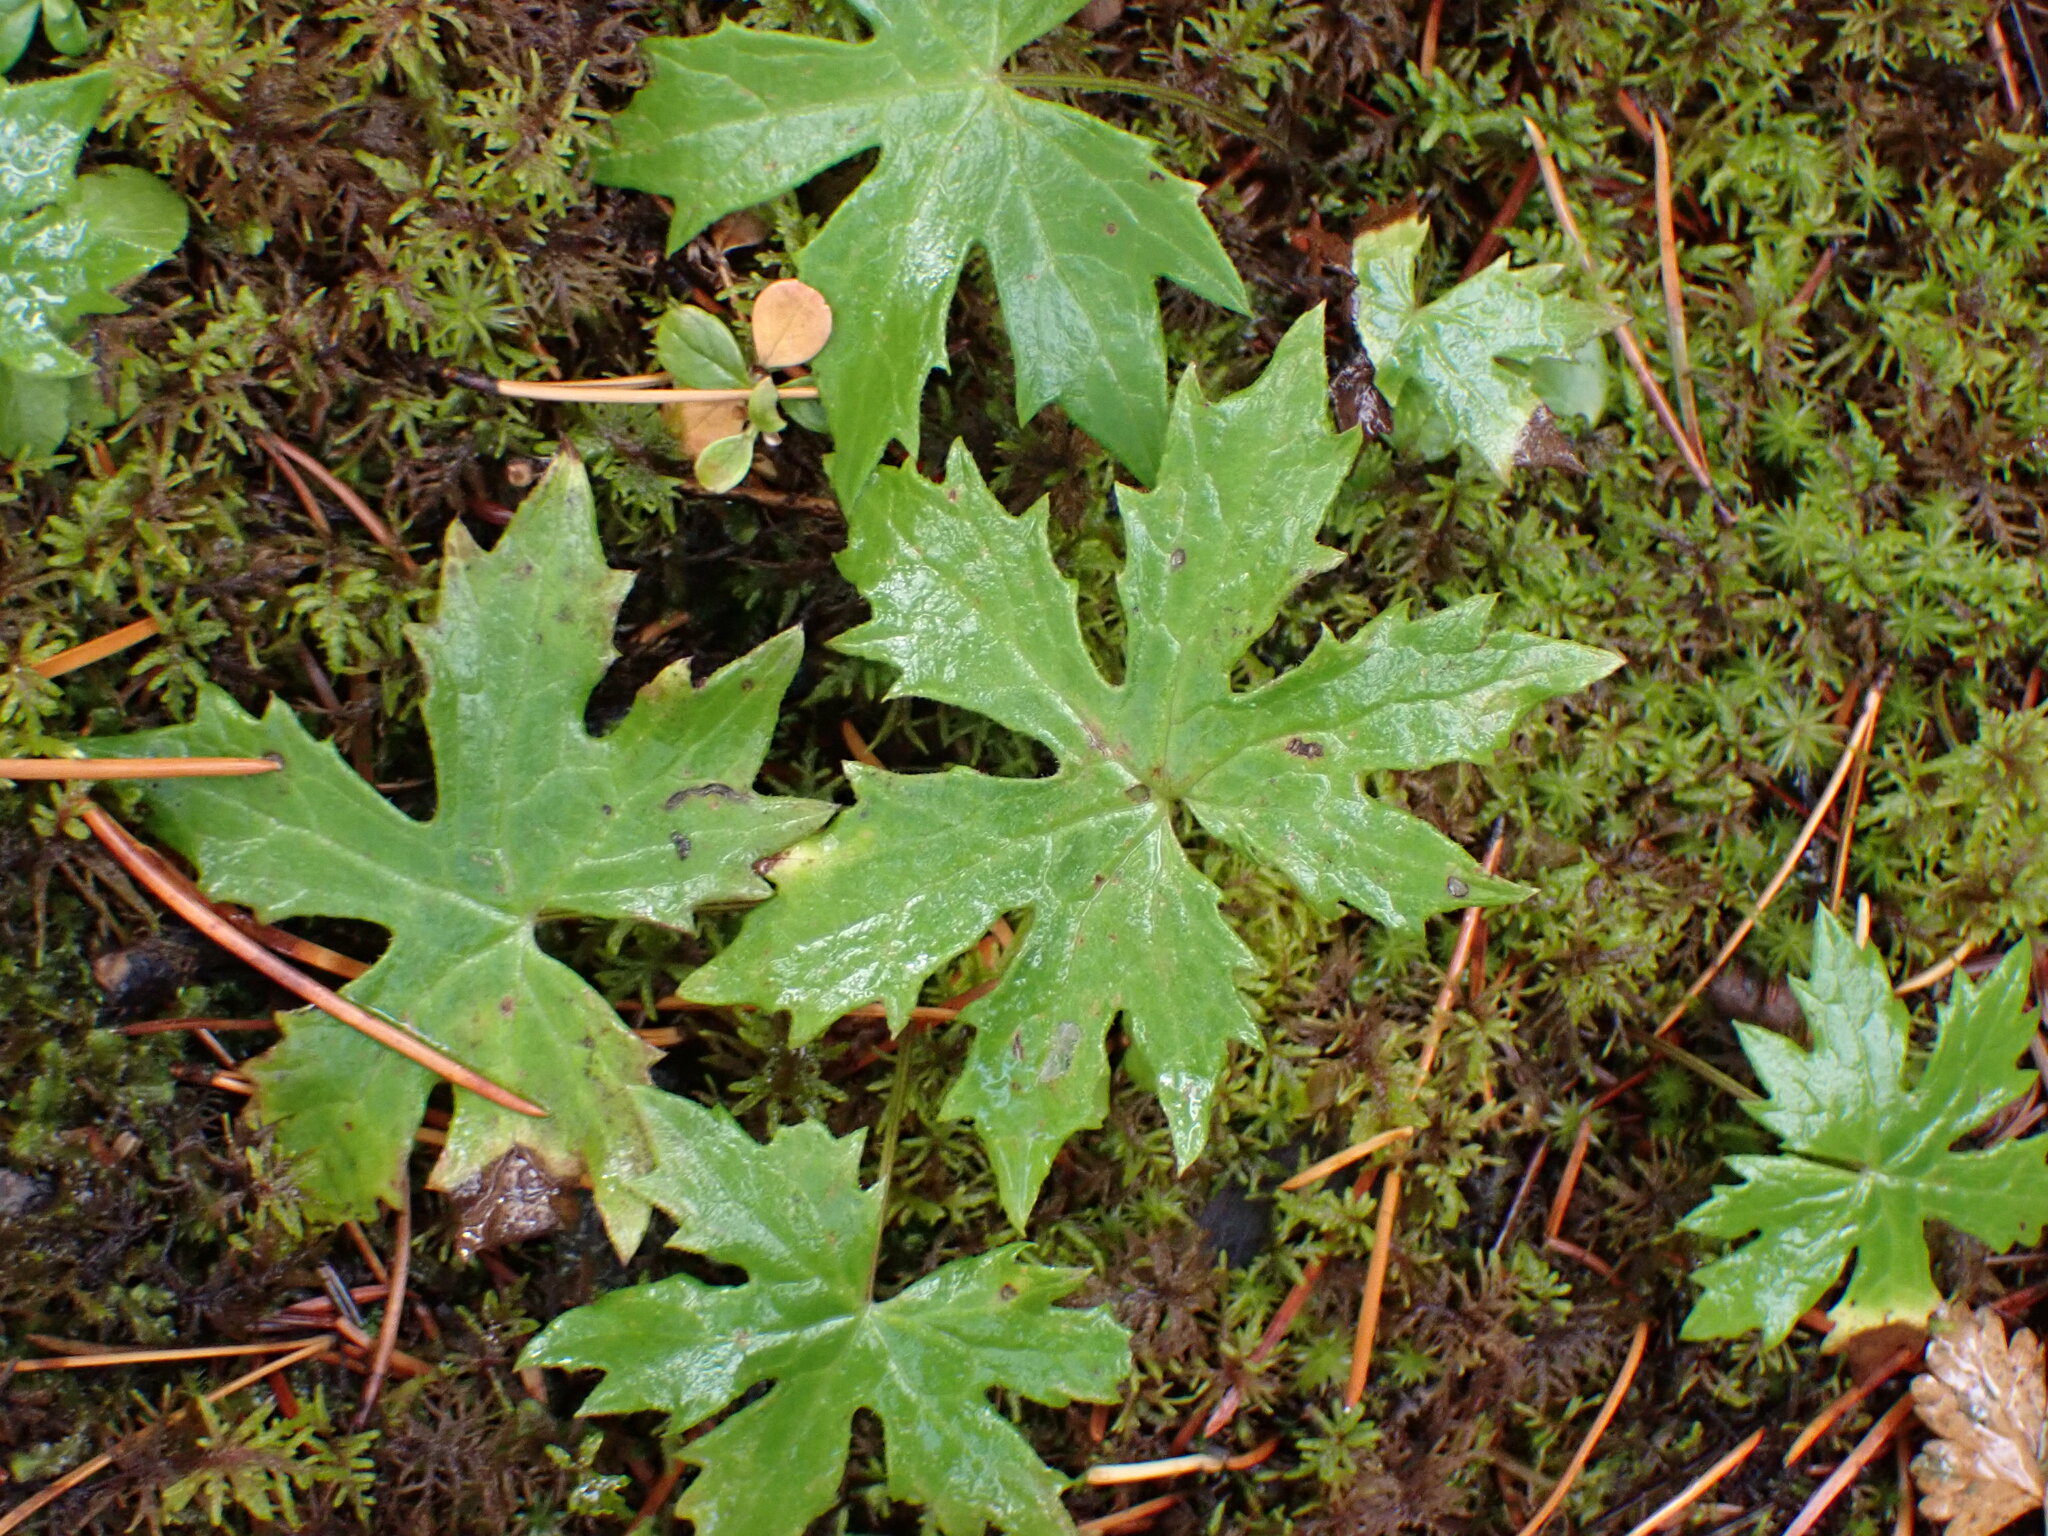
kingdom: Plantae
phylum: Tracheophyta
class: Magnoliopsida
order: Asterales
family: Asteraceae
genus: Petasites
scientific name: Petasites frigidus
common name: Arctic butterbur
